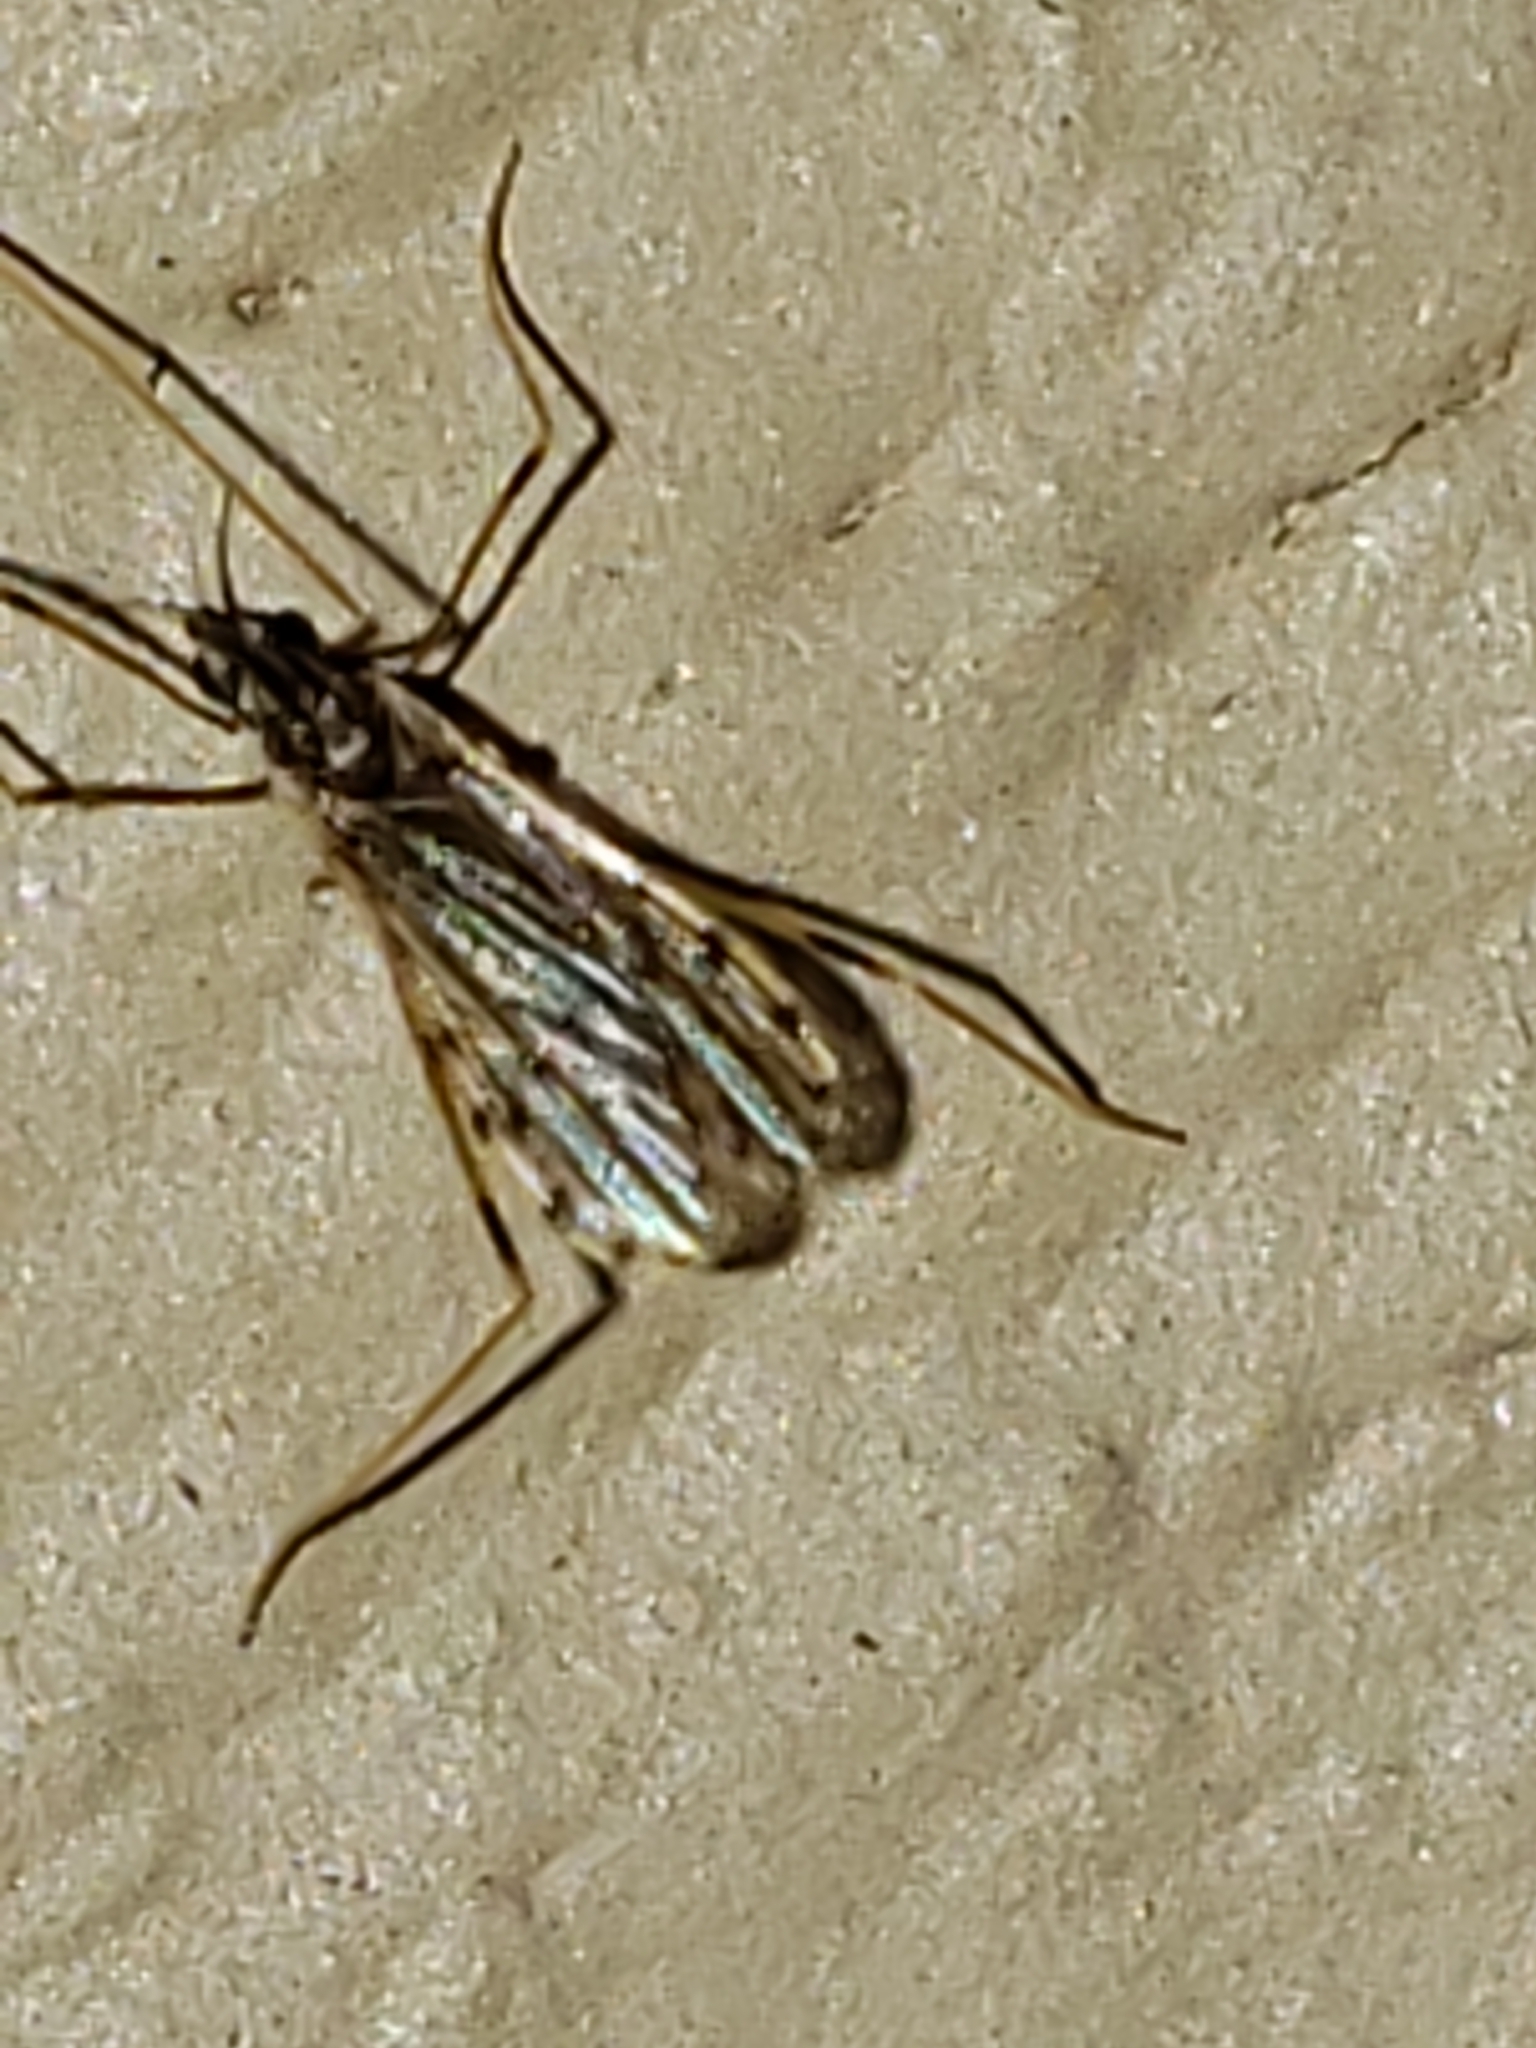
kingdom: Animalia
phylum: Arthropoda
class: Insecta
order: Diptera
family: Limoniidae
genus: Erioptera
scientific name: Erioptera parva
